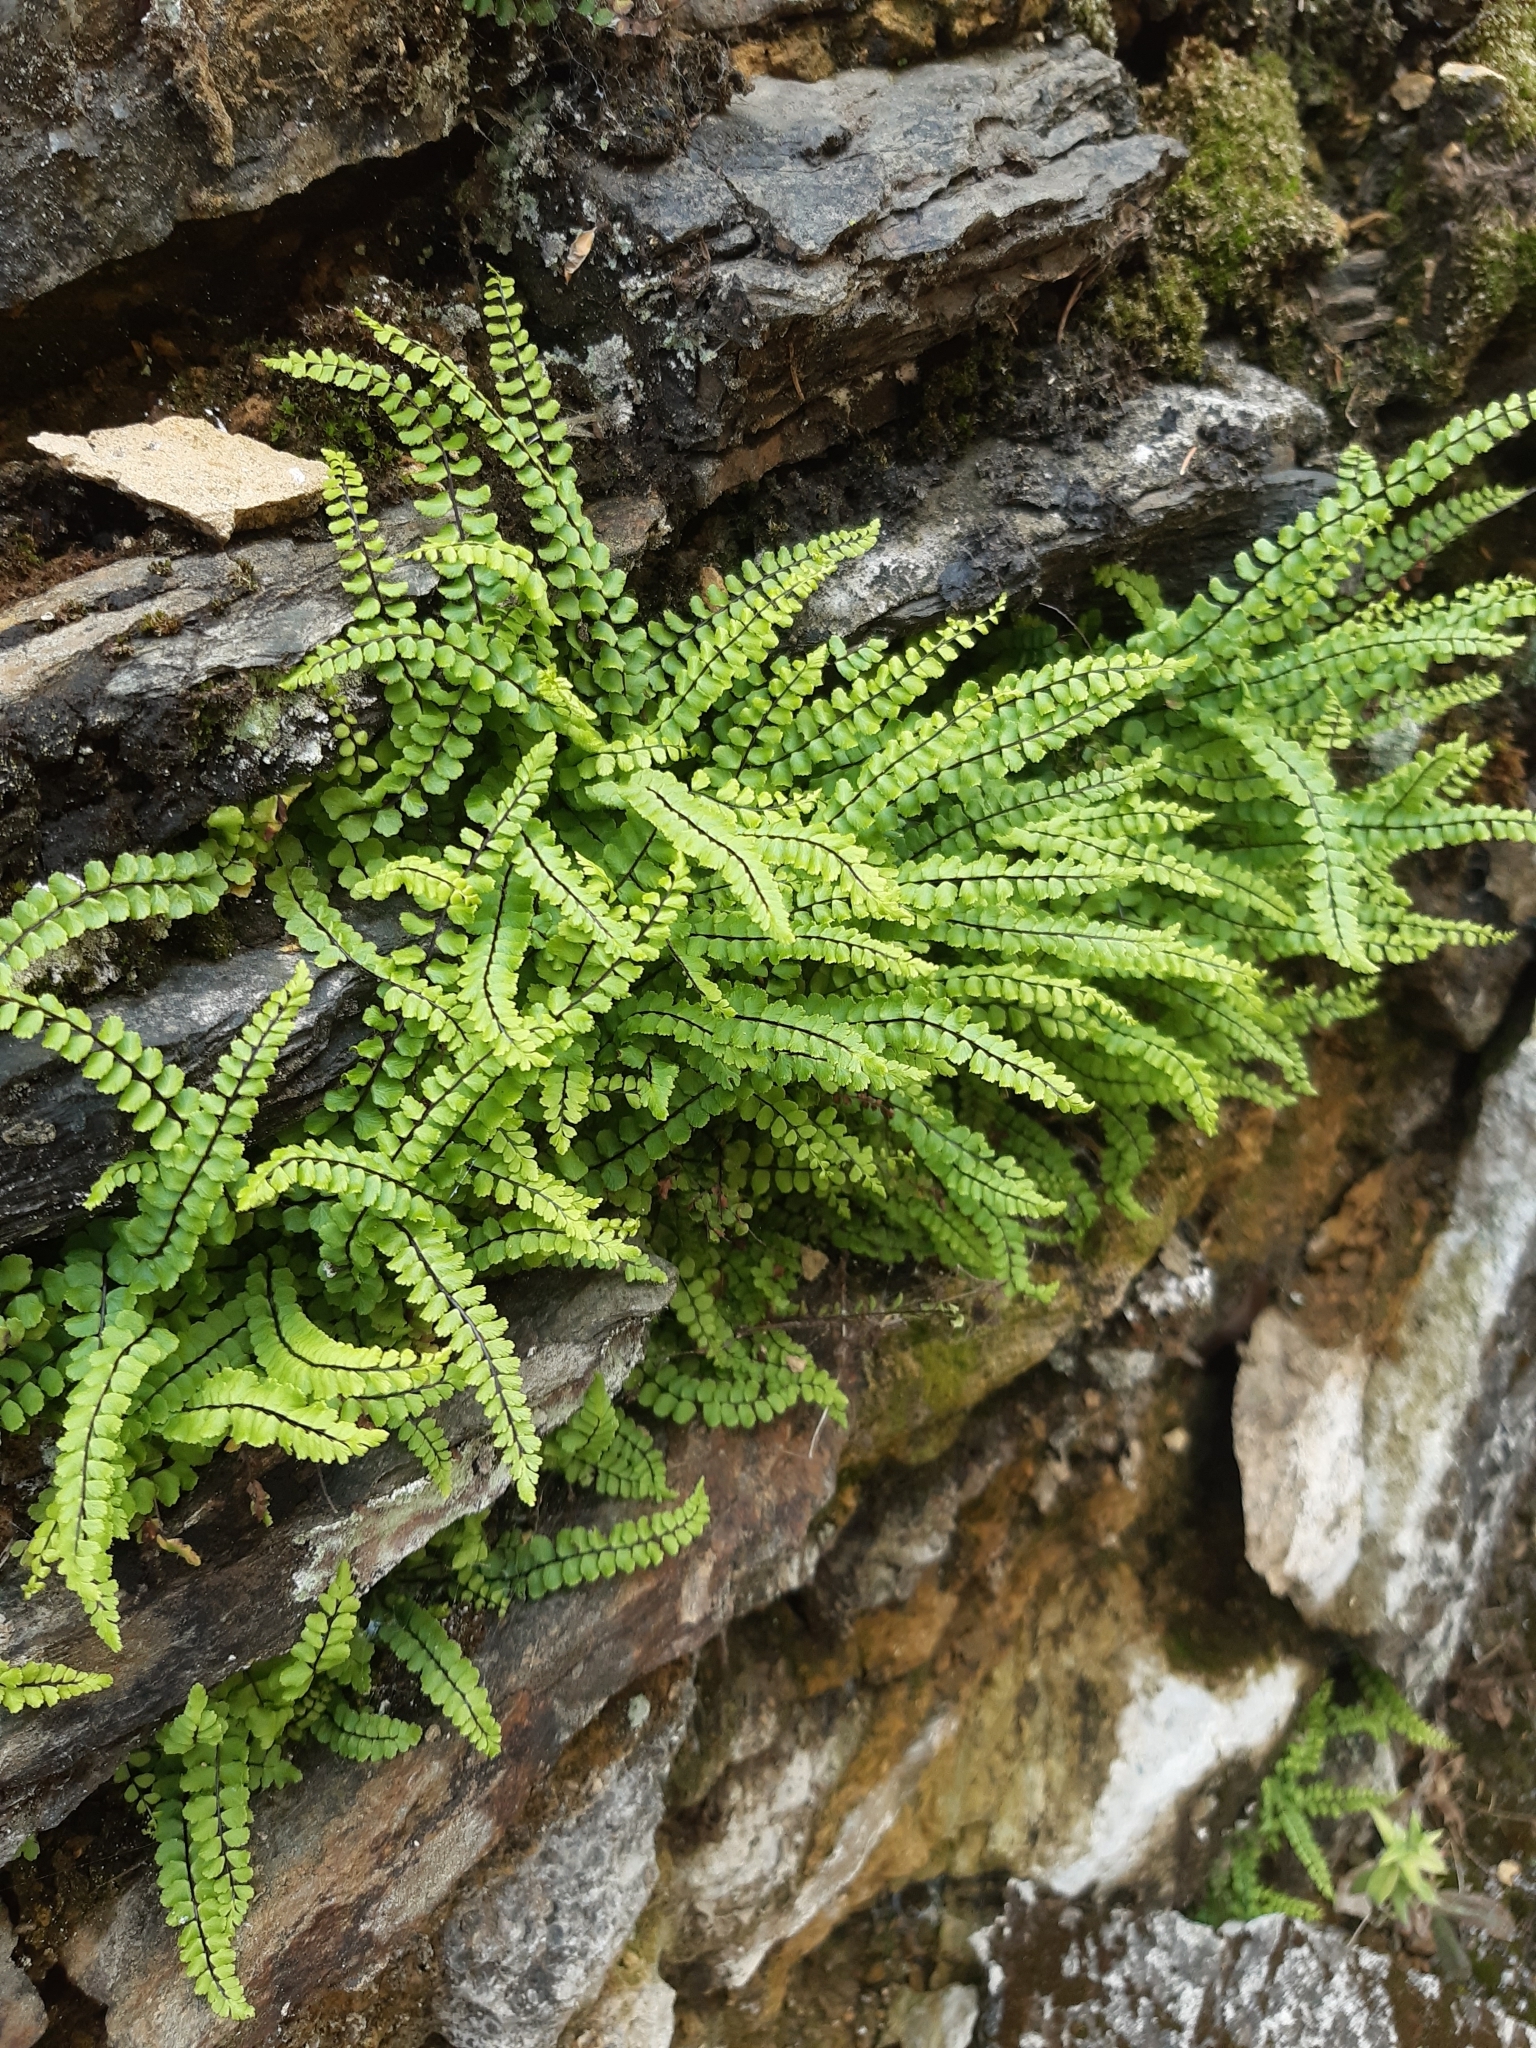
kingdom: Plantae
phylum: Tracheophyta
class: Polypodiopsida
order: Polypodiales
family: Aspleniaceae
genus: Asplenium
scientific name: Asplenium trichomanes
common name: Maidenhair spleenwort
